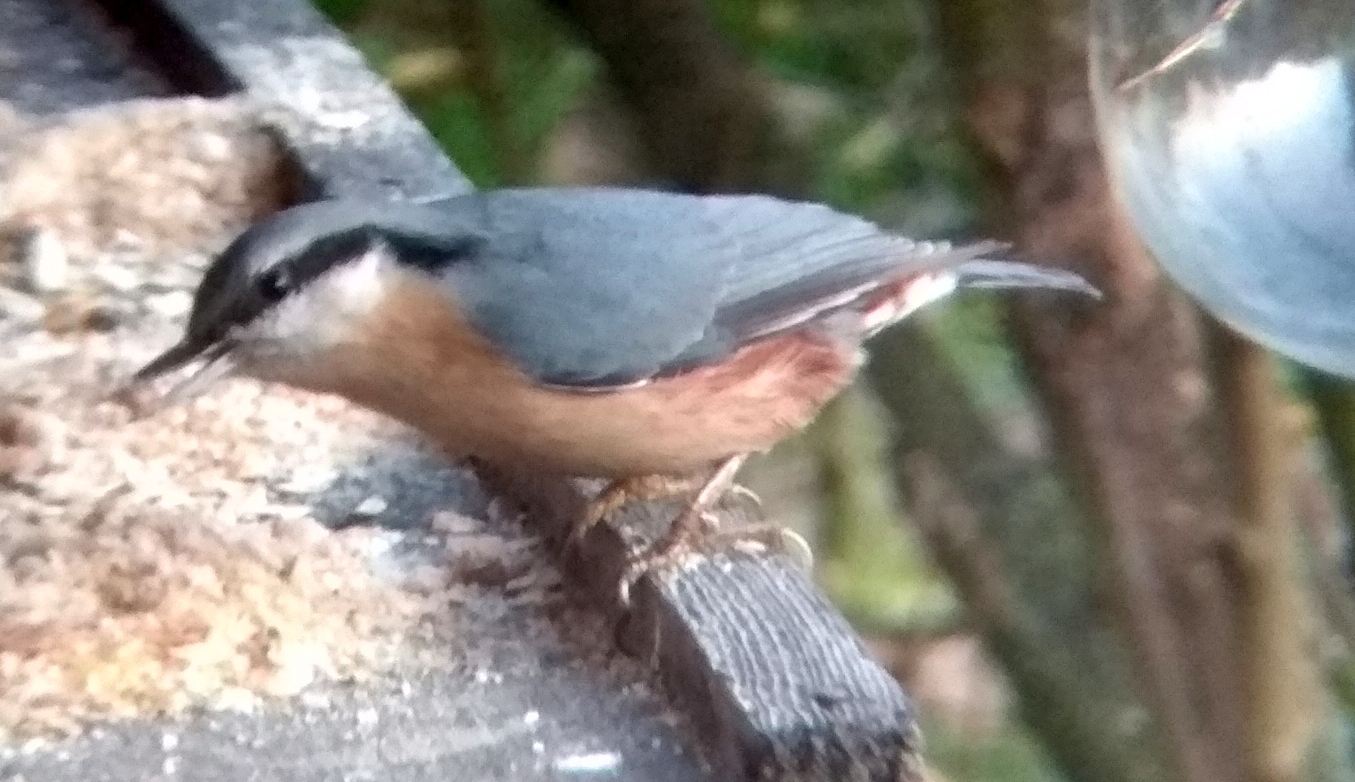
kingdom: Animalia
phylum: Chordata
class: Aves
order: Passeriformes
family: Sittidae
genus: Sitta
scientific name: Sitta europaea
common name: Eurasian nuthatch
